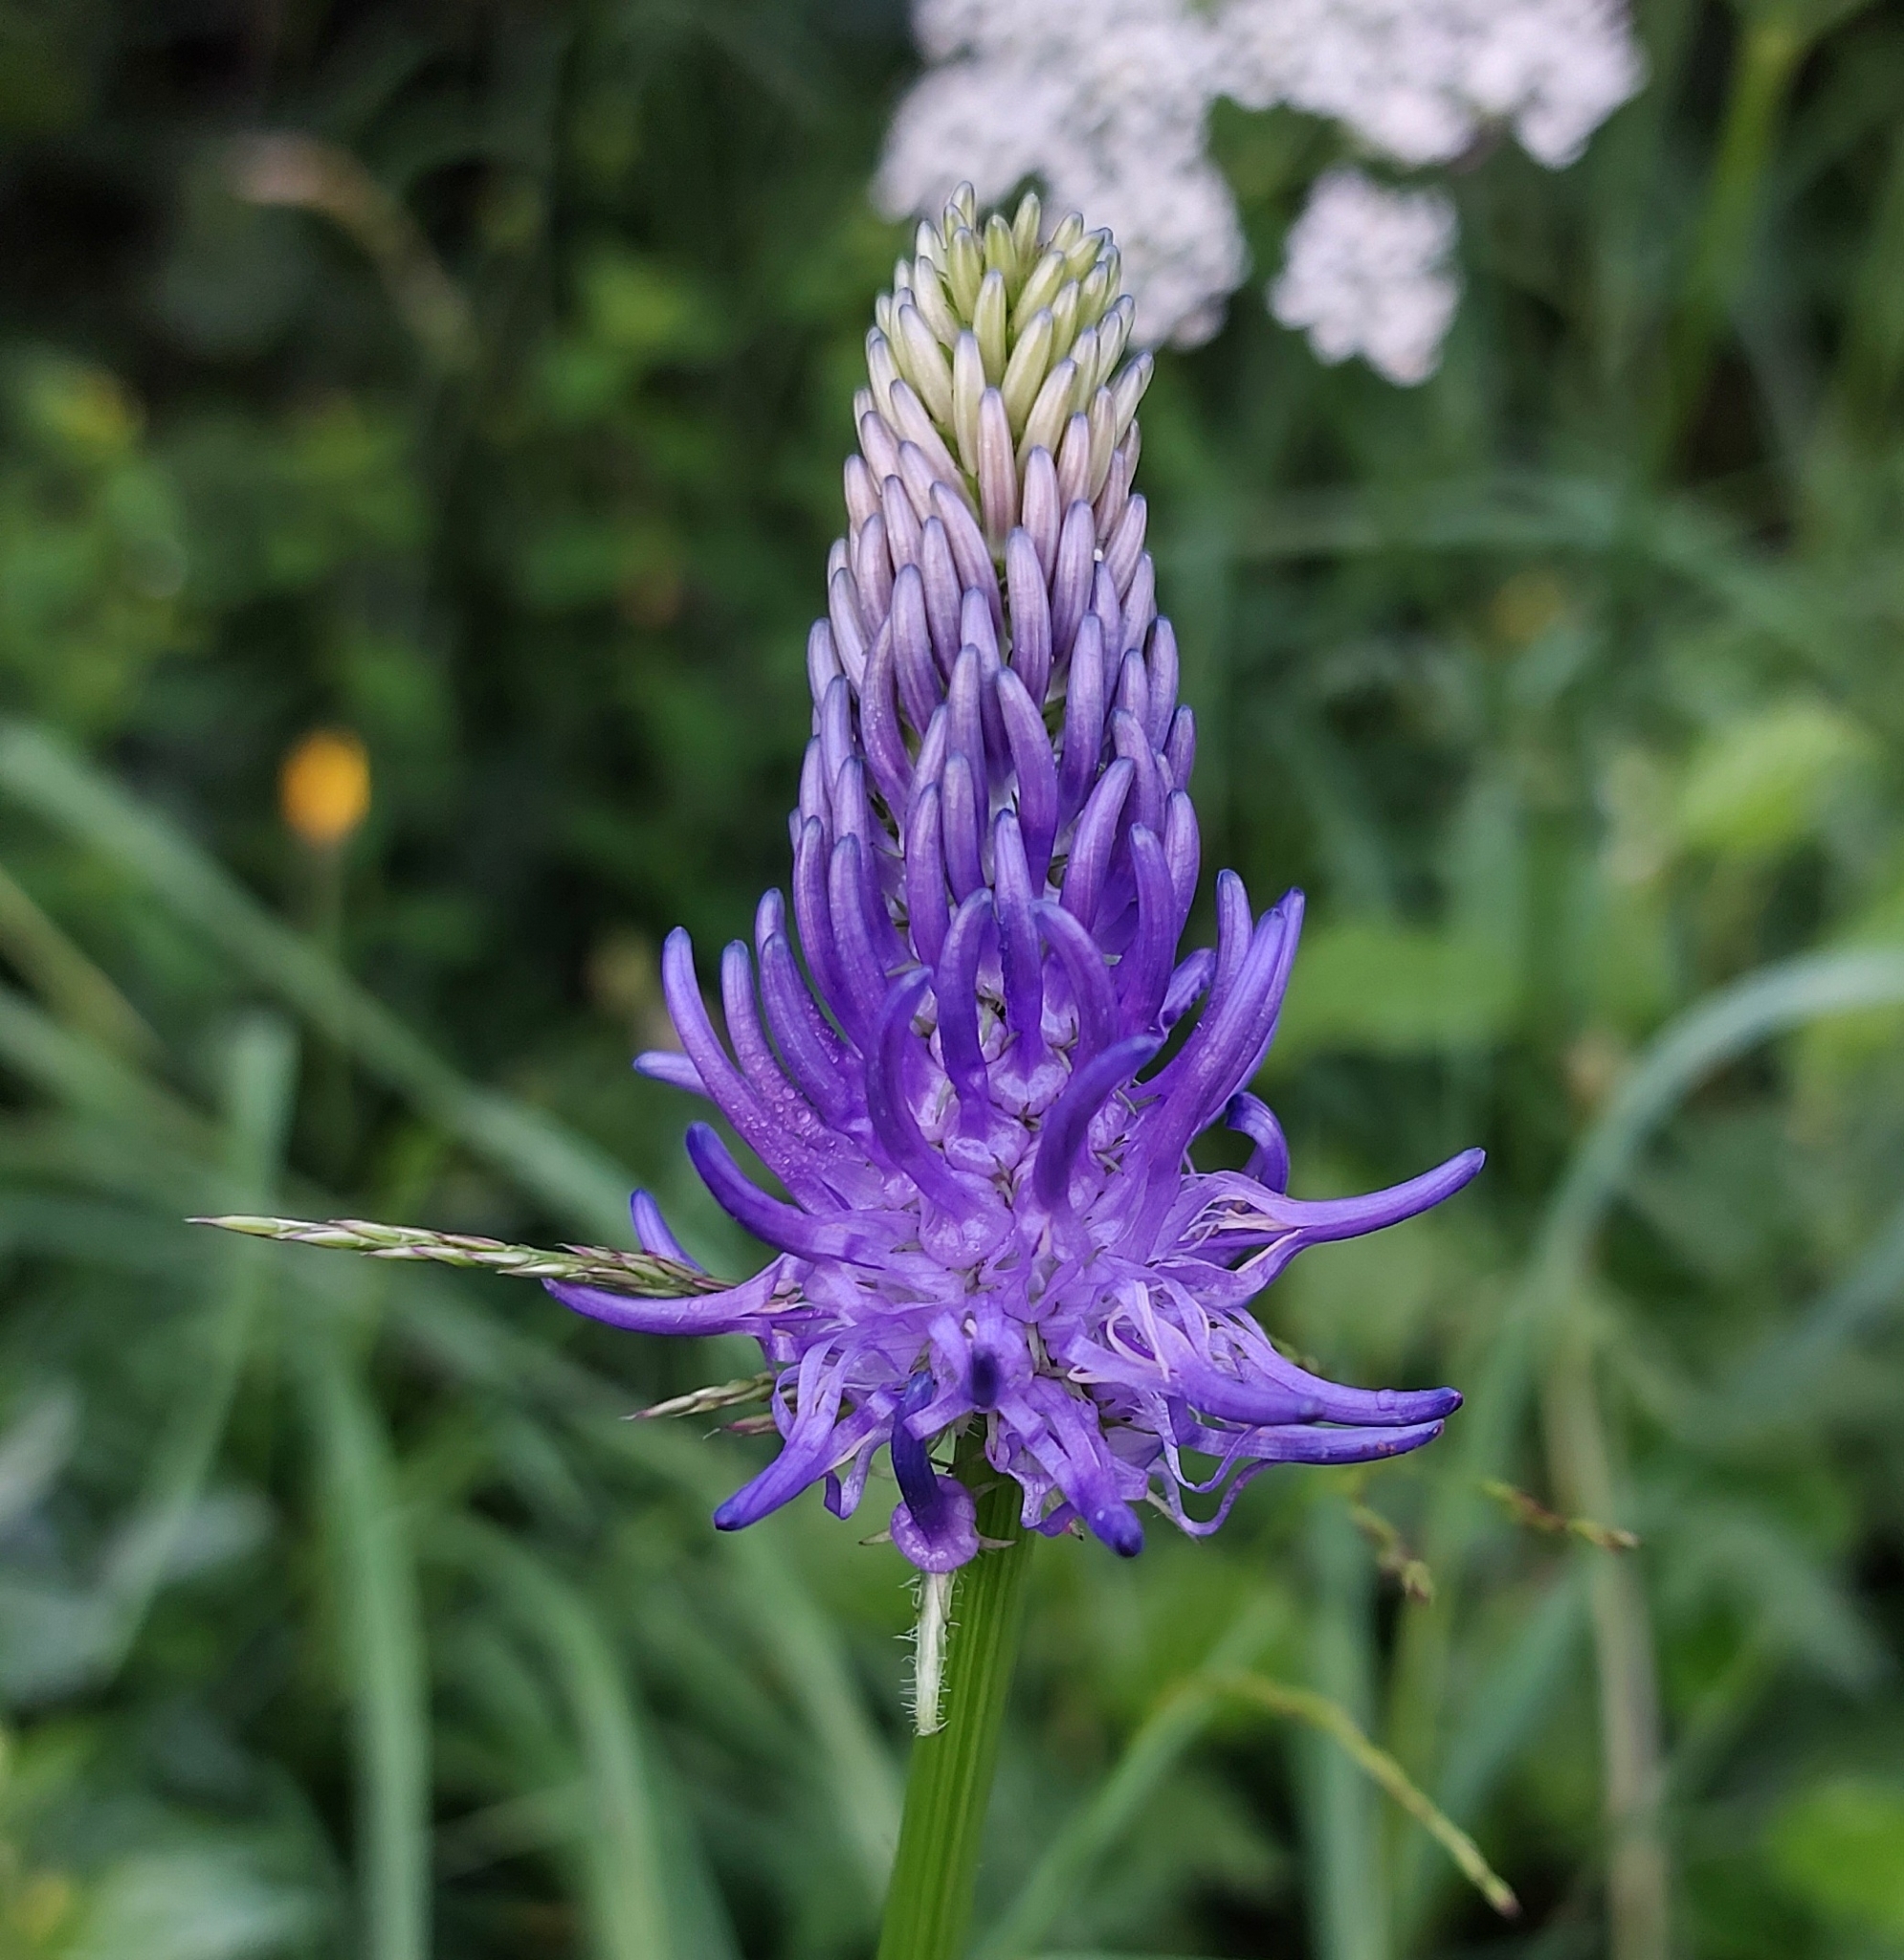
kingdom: Plantae
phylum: Tracheophyta
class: Magnoliopsida
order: Asterales
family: Campanulaceae
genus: Phyteuma
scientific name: Phyteuma betonicifolium
